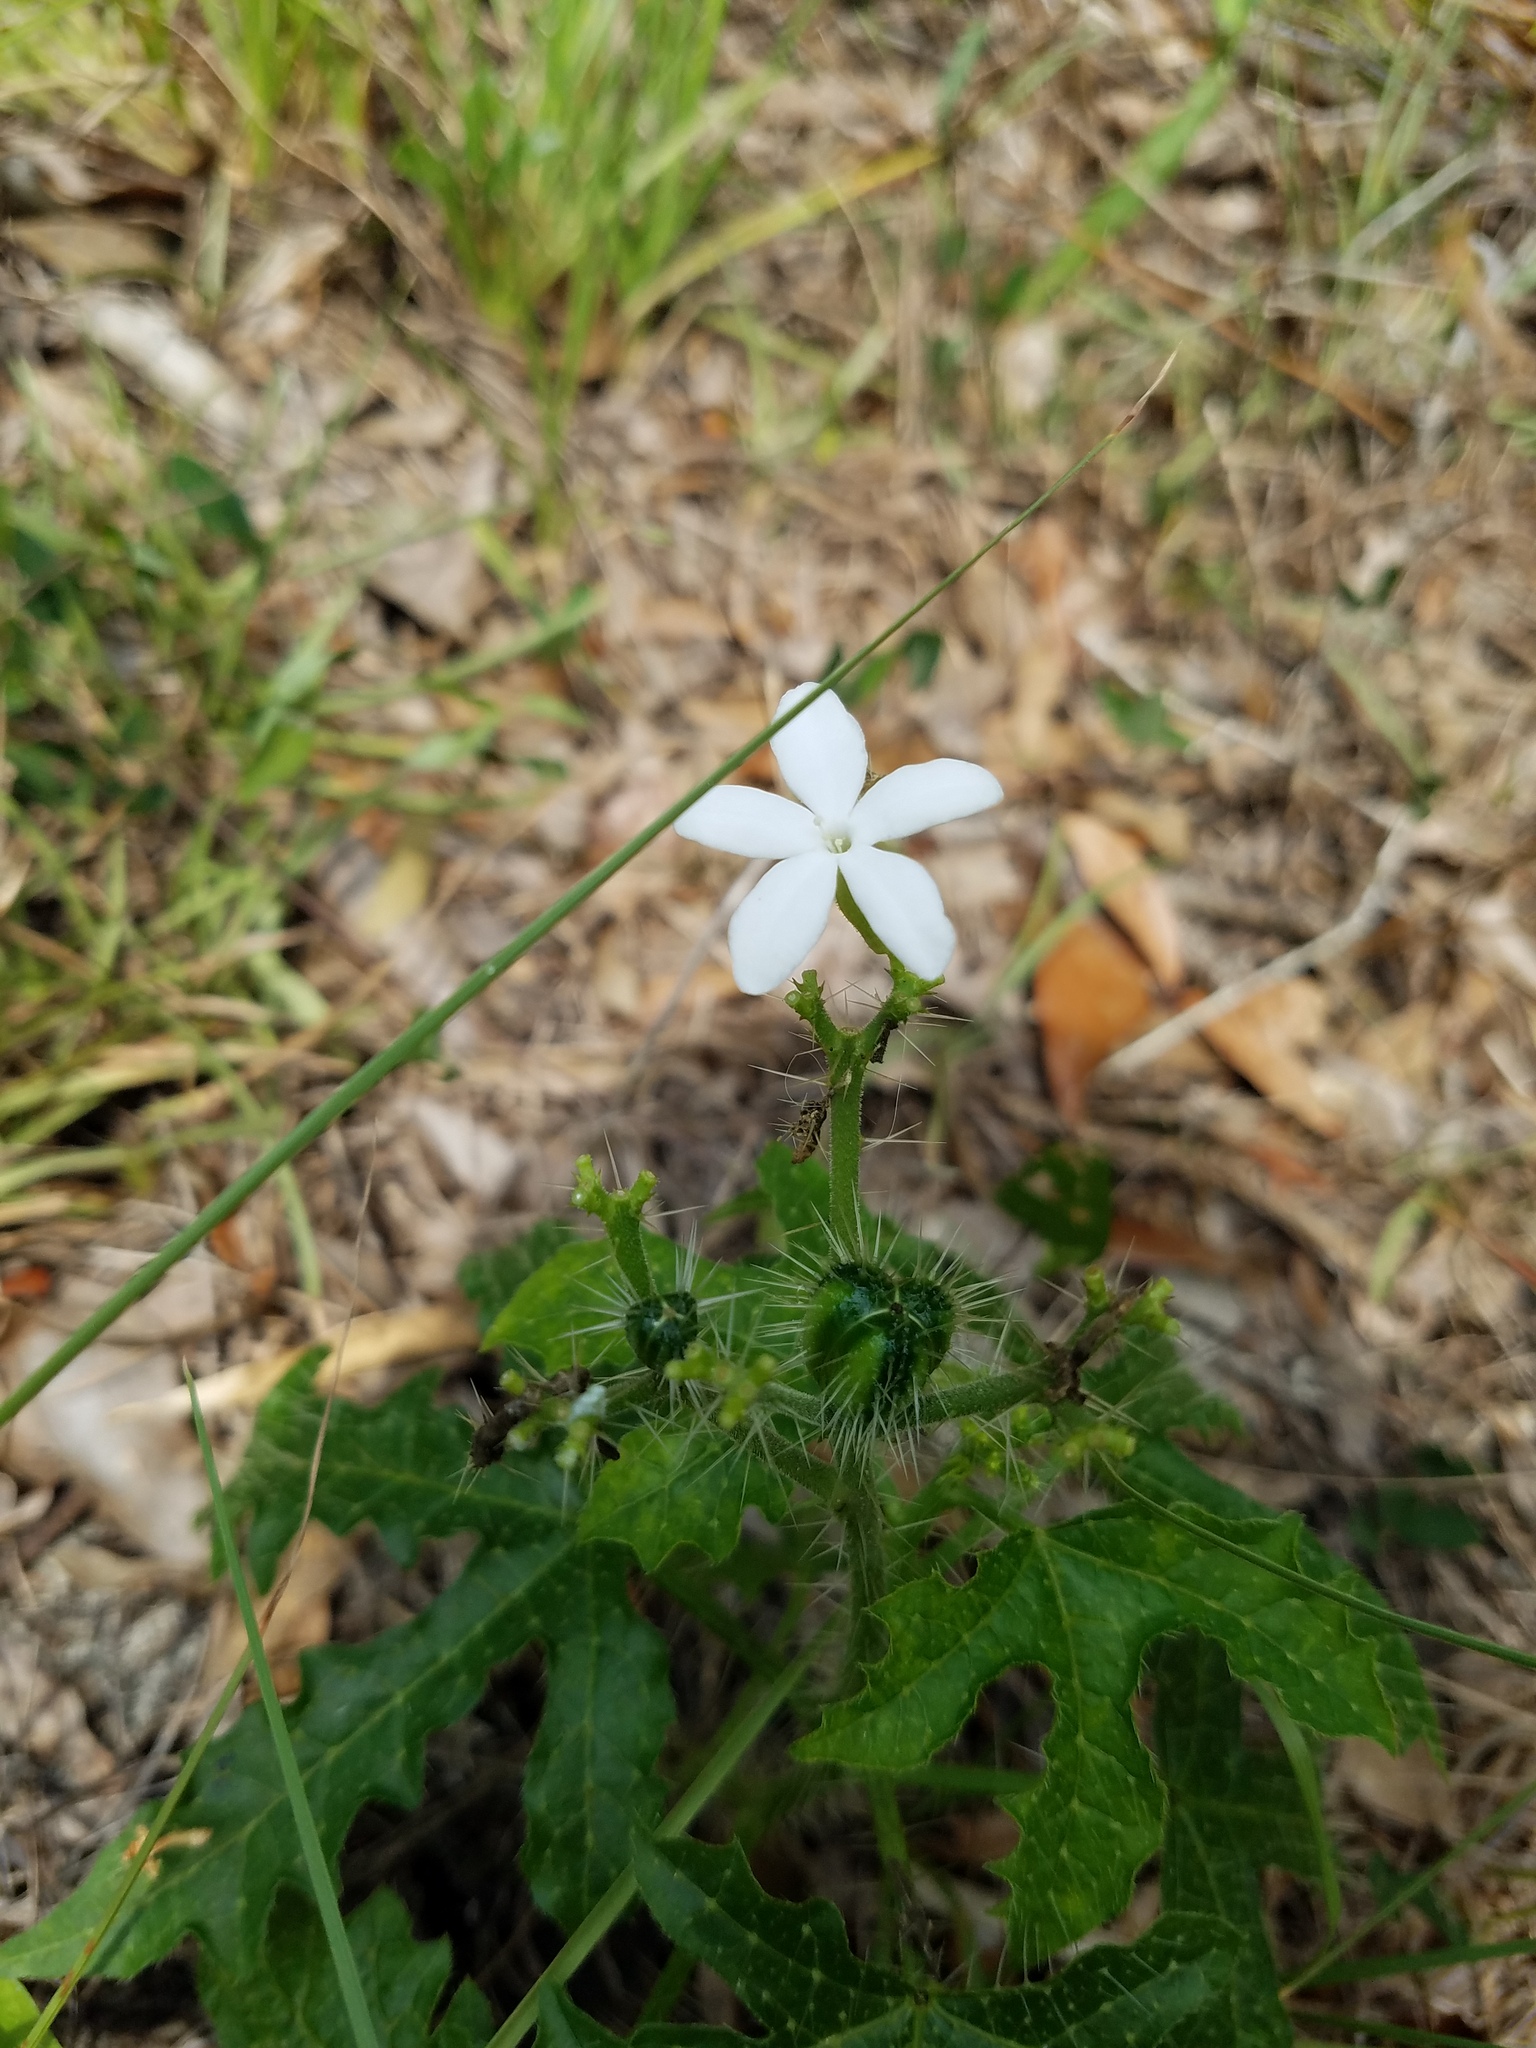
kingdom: Plantae
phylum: Tracheophyta
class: Magnoliopsida
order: Malpighiales
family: Euphorbiaceae
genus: Cnidoscolus
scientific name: Cnidoscolus stimulosus
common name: Bull-nettle
